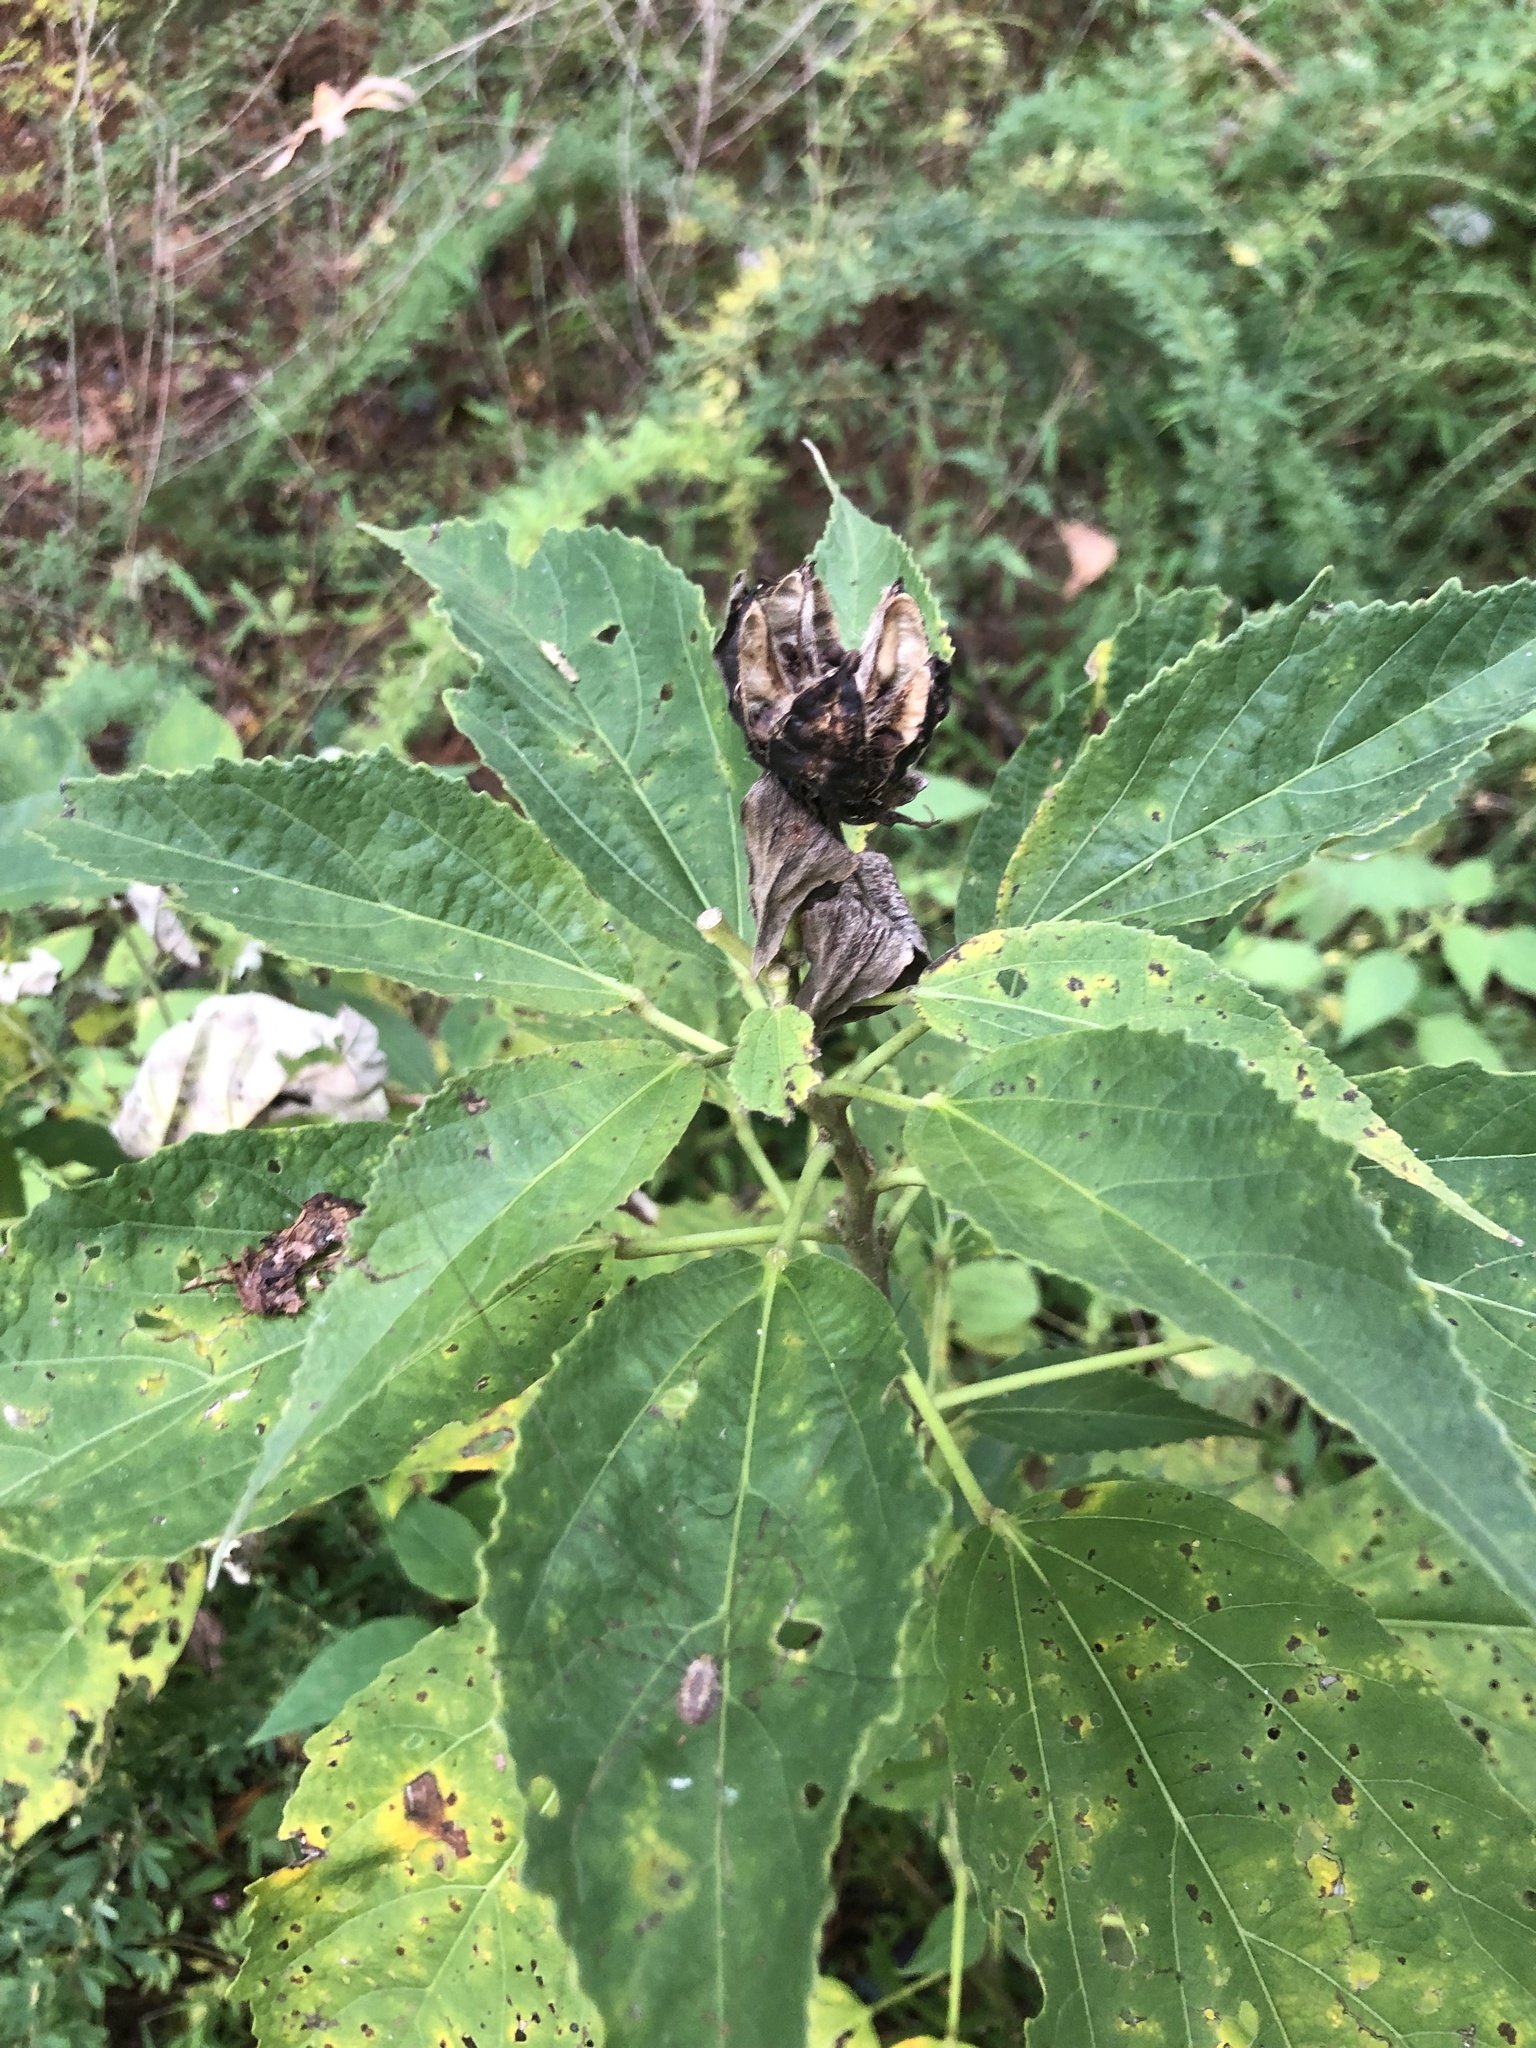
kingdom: Plantae
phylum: Tracheophyta
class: Magnoliopsida
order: Malvales
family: Malvaceae
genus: Hibiscus
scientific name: Hibiscus moscheutos
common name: Common rose-mallow
